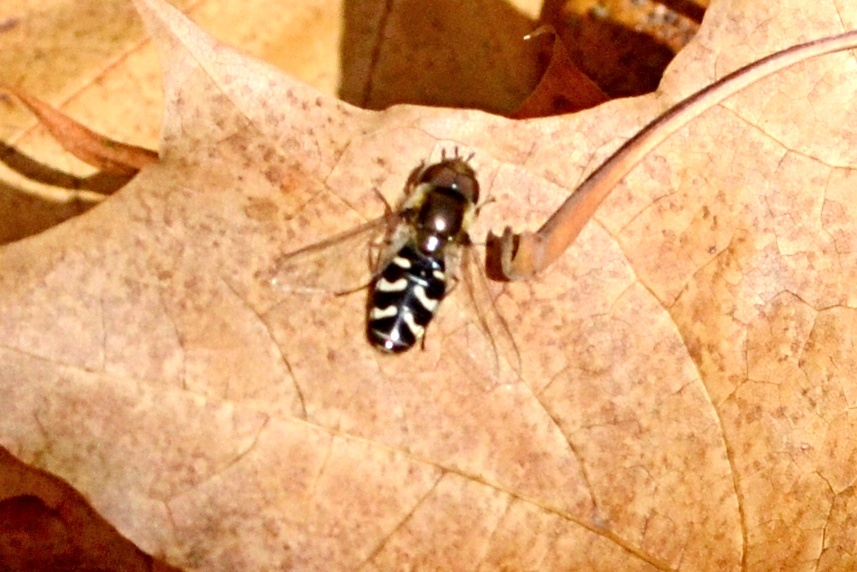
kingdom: Animalia
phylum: Arthropoda
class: Insecta
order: Diptera
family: Syrphidae
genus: Scaeva
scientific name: Scaeva pyrastri
